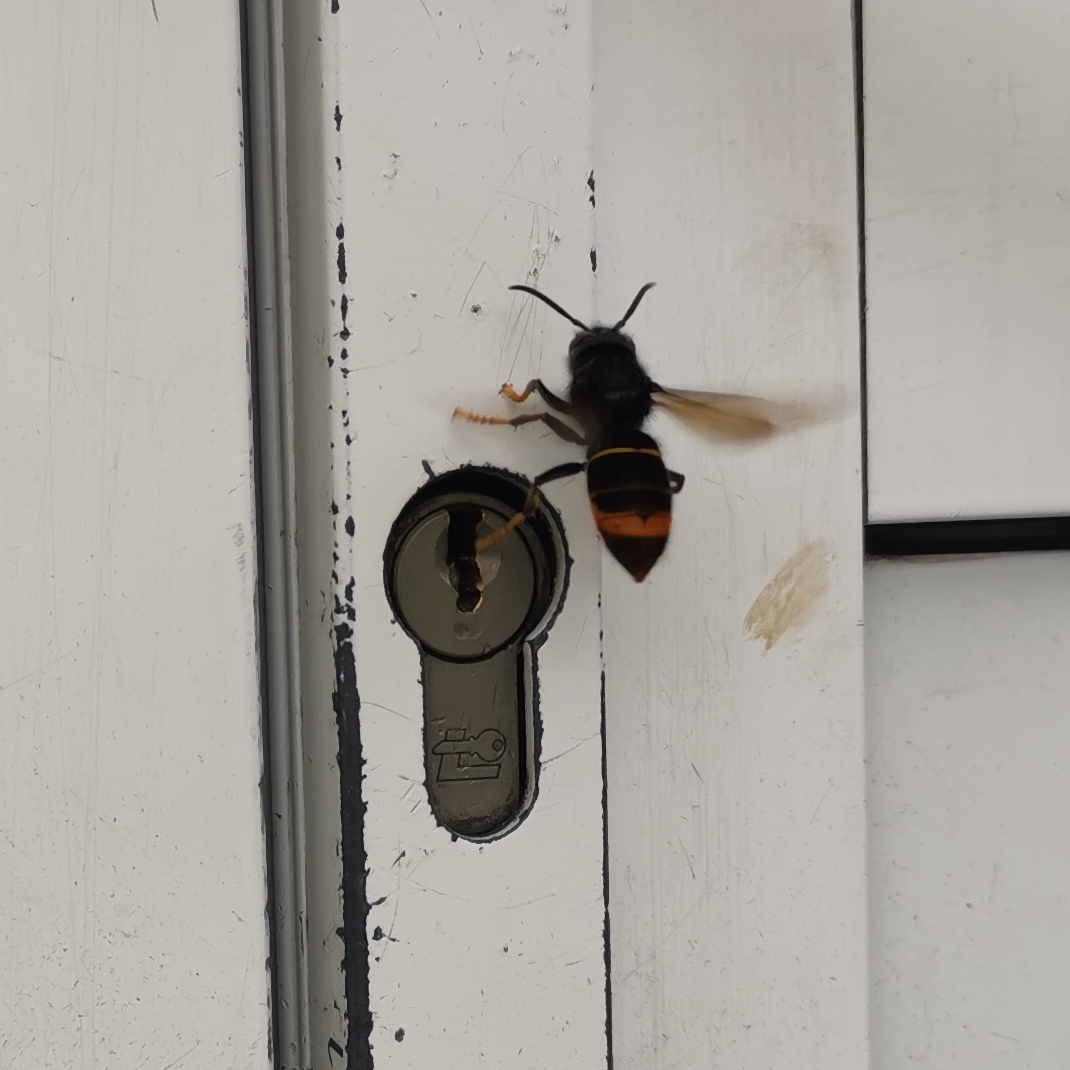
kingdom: Animalia
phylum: Arthropoda
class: Insecta
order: Hymenoptera
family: Vespidae
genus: Vespa
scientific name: Vespa velutina
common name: Asian hornet
